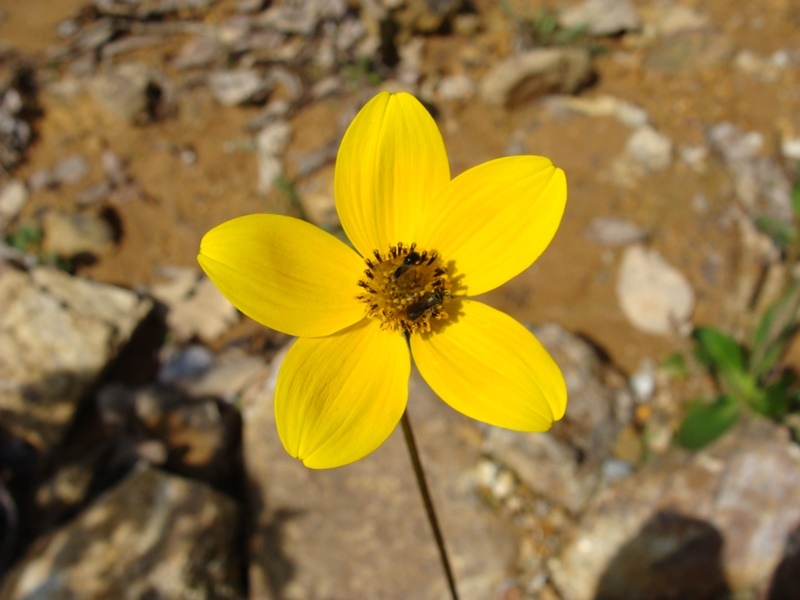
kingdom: Plantae
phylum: Tracheophyta
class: Magnoliopsida
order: Asterales
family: Asteraceae
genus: Bidens
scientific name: Bidens triplinervia
